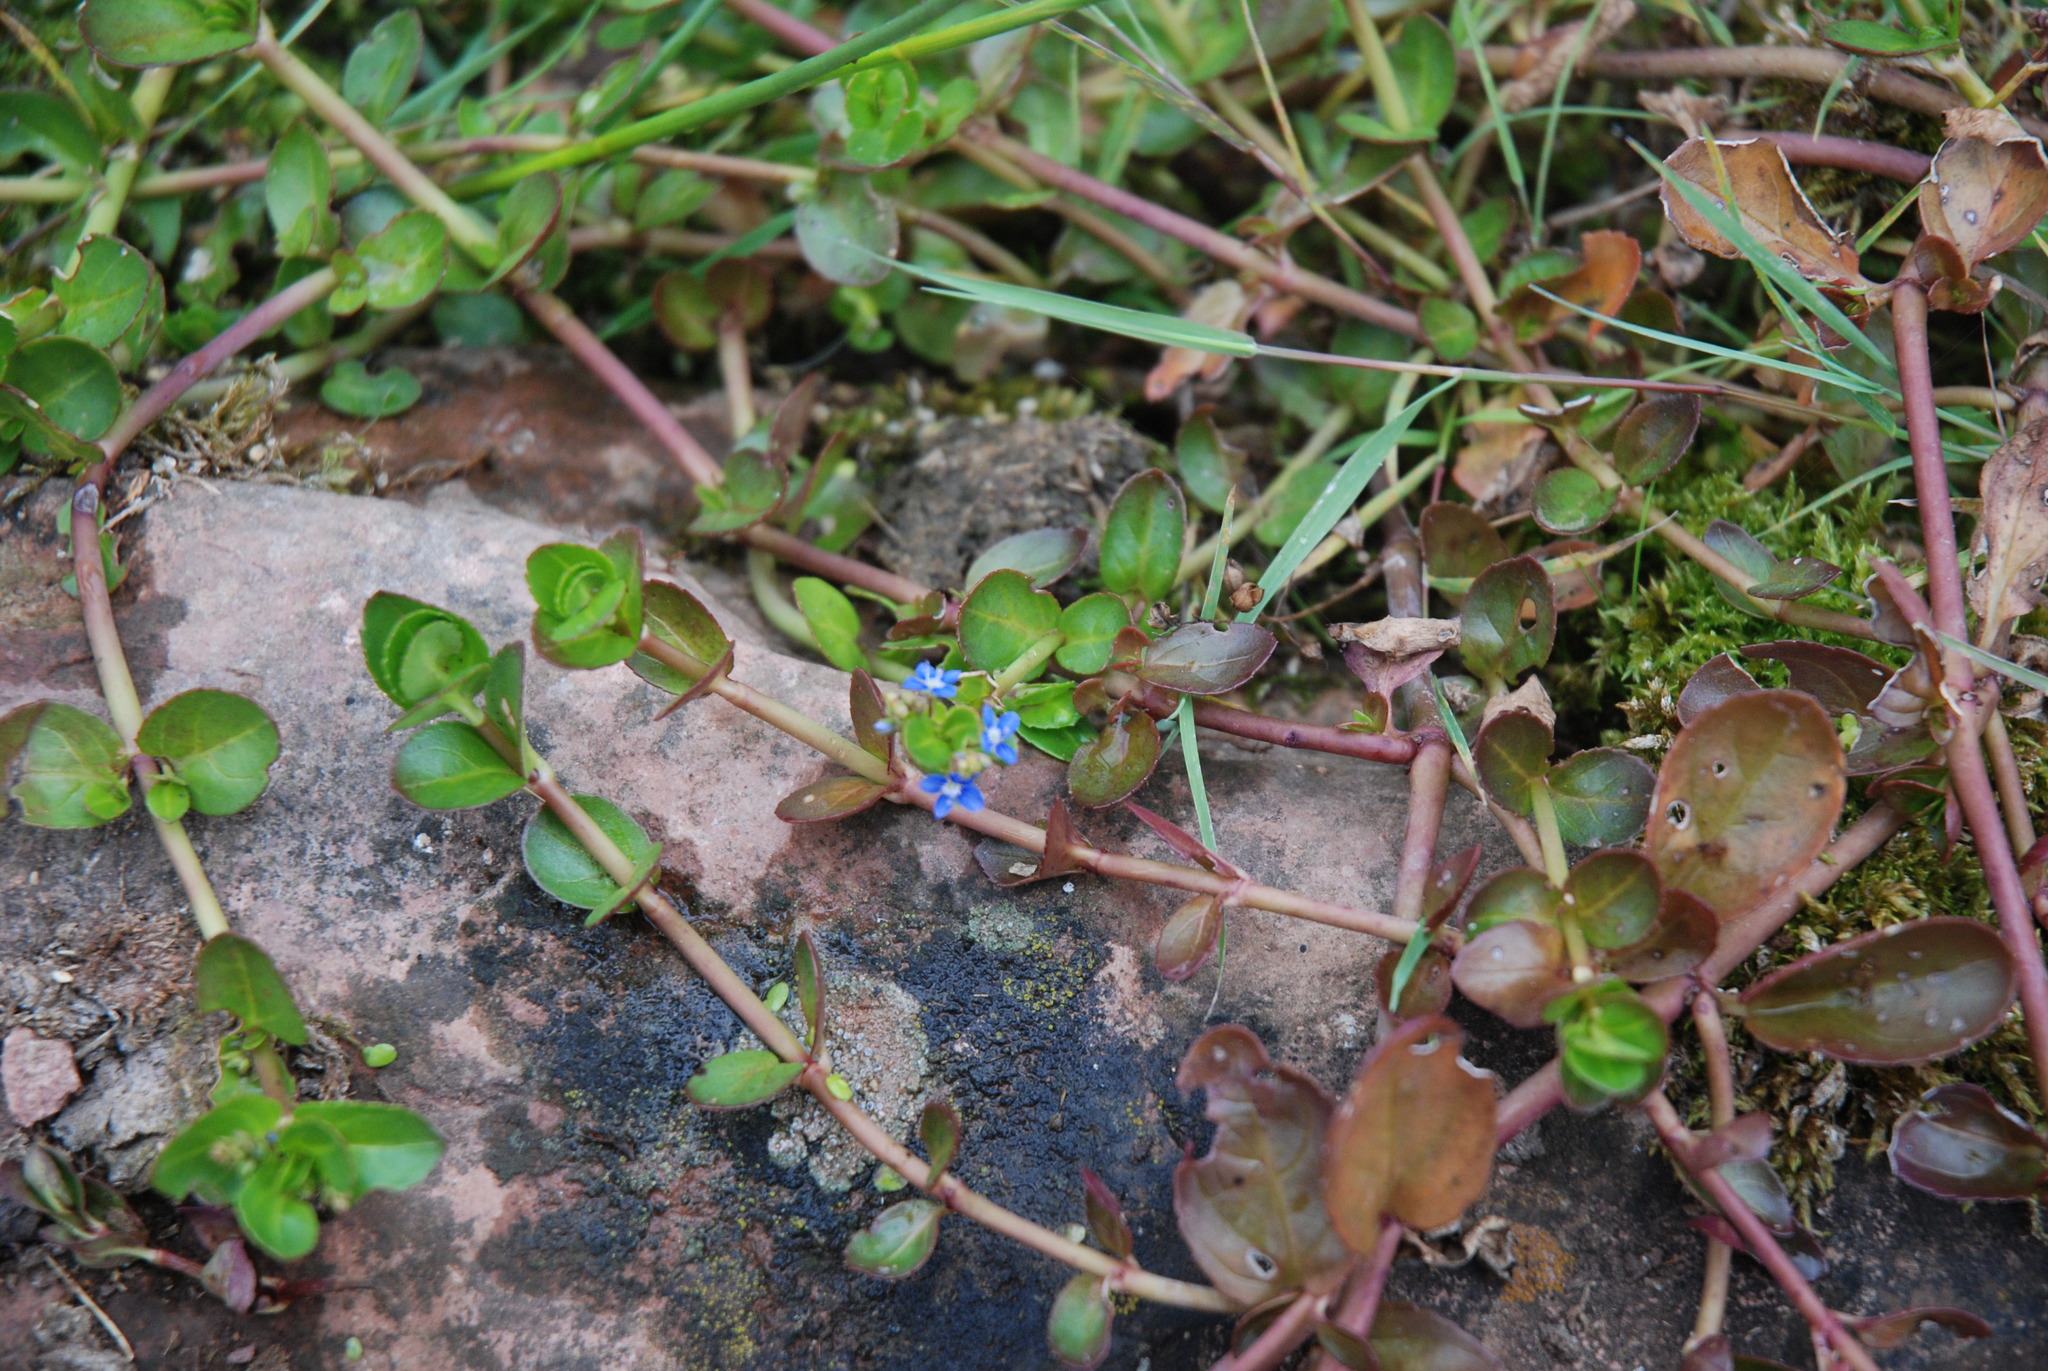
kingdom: Plantae
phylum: Tracheophyta
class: Magnoliopsida
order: Lamiales
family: Plantaginaceae
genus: Veronica
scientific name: Veronica beccabunga
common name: Brooklime
